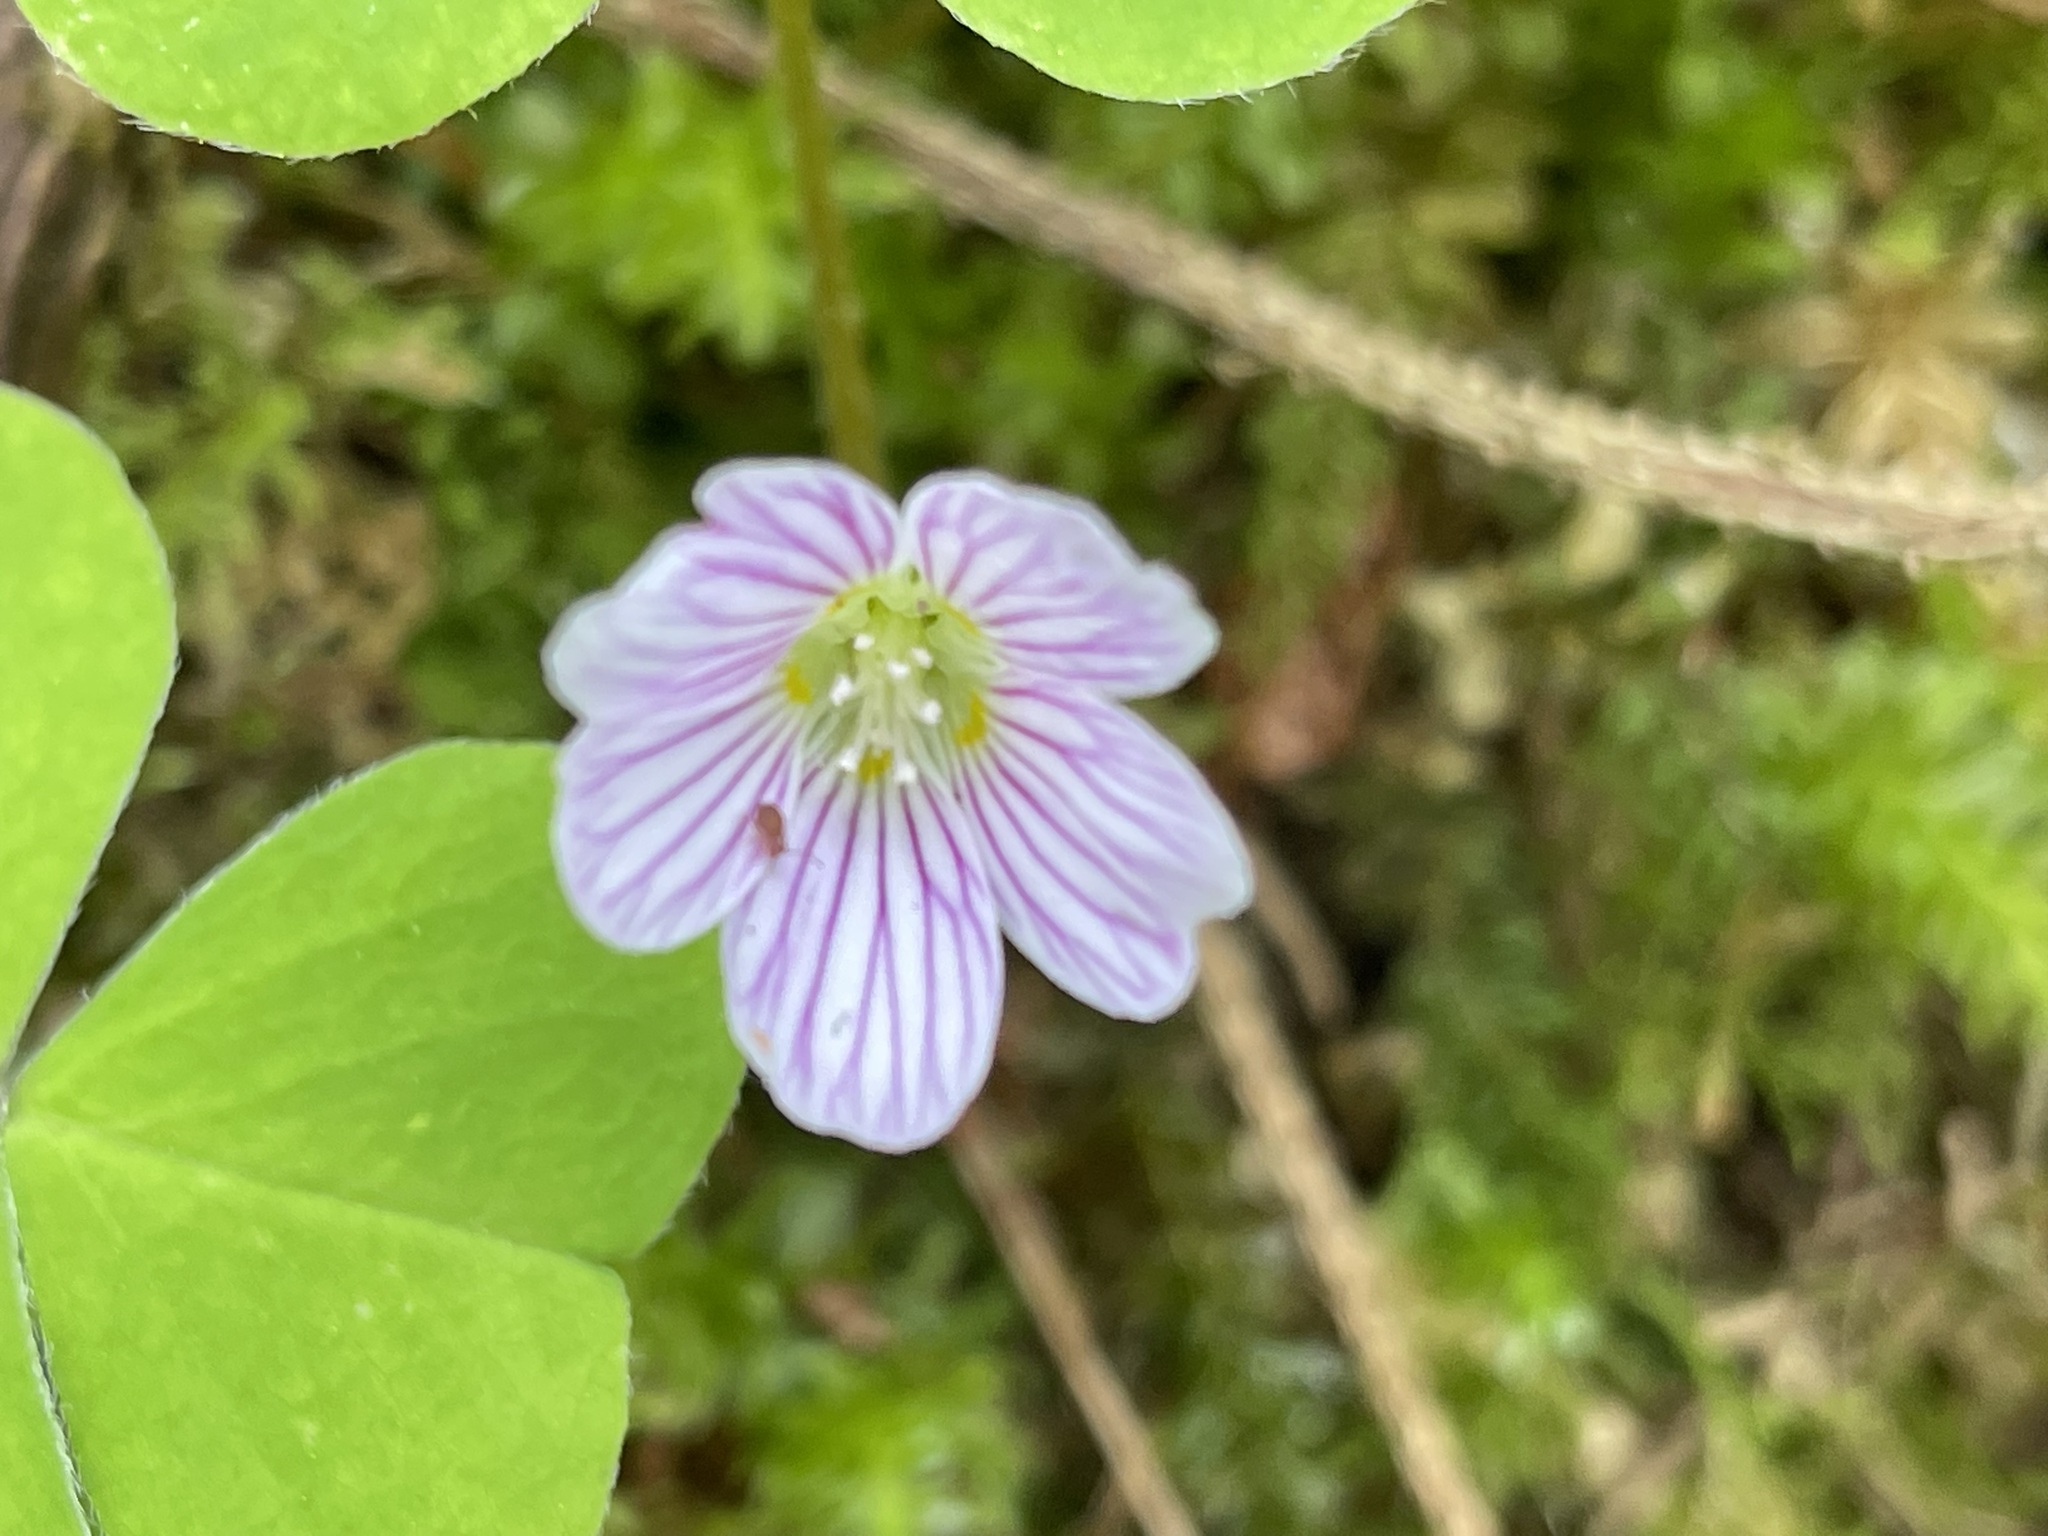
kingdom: Plantae
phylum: Tracheophyta
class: Magnoliopsida
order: Oxalidales
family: Oxalidaceae
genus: Oxalis
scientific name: Oxalis oregana
